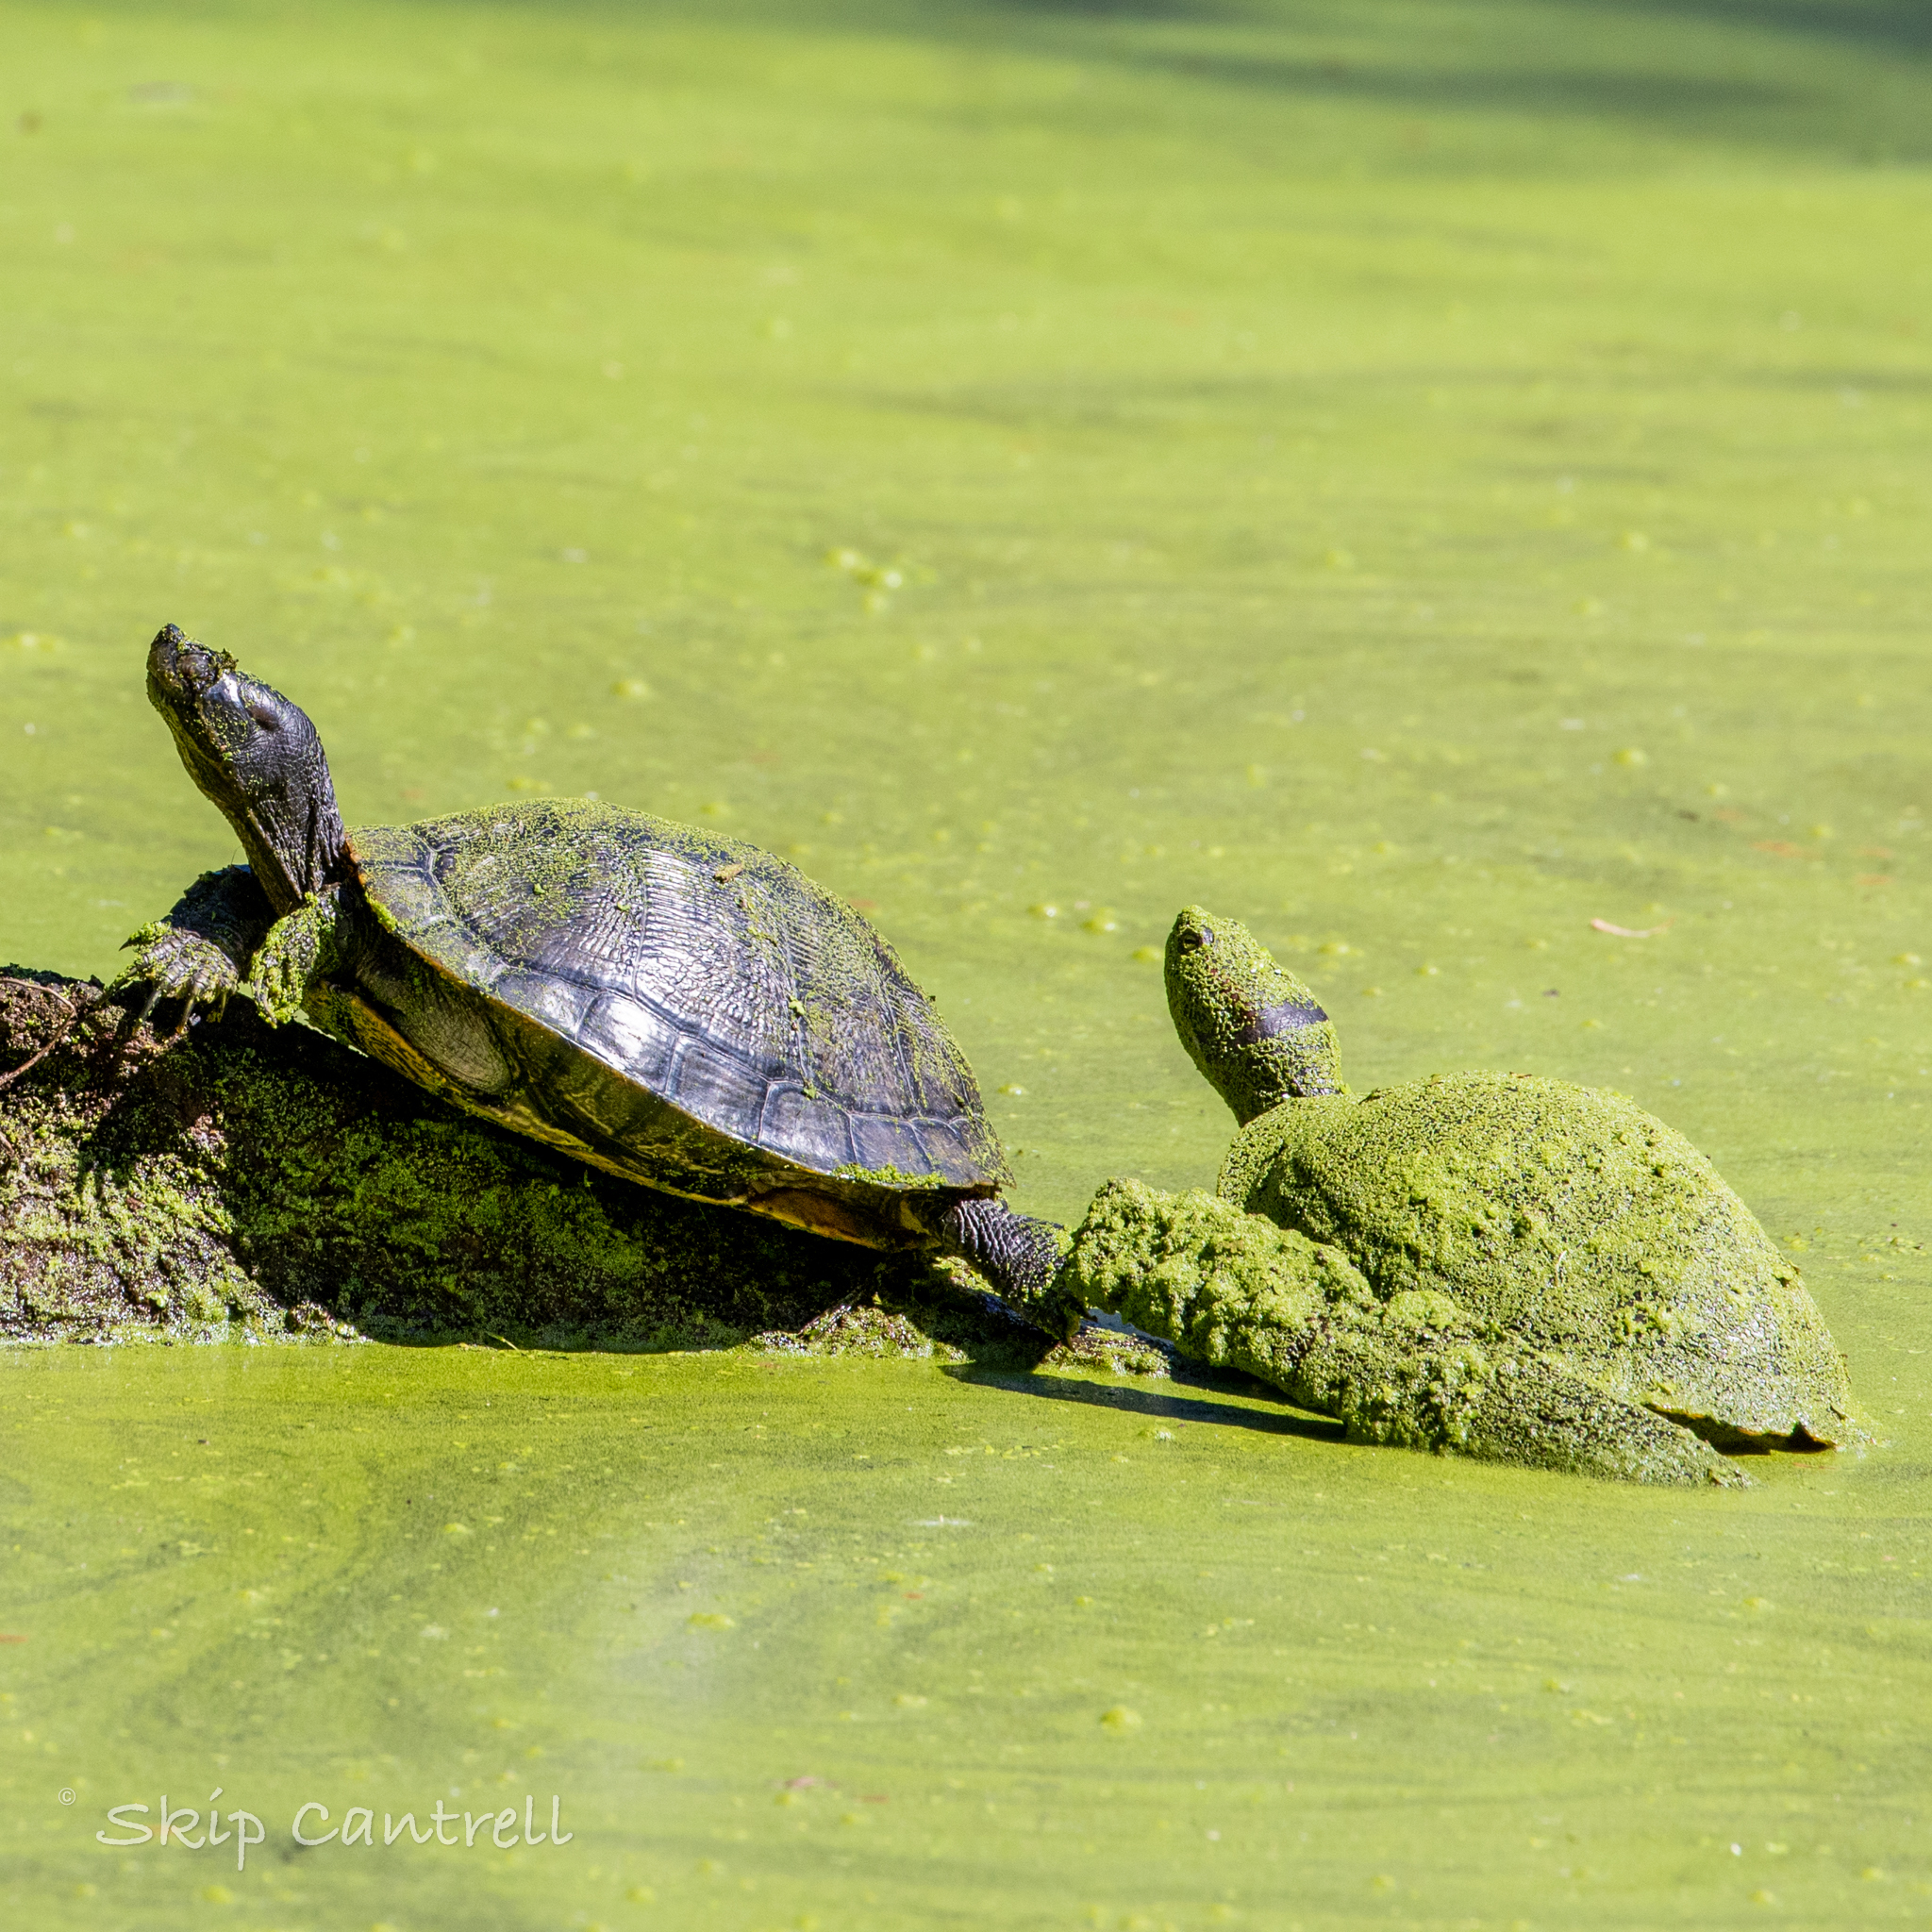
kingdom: Animalia
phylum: Chordata
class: Testudines
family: Emydidae
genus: Trachemys
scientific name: Trachemys scripta
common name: Slider
